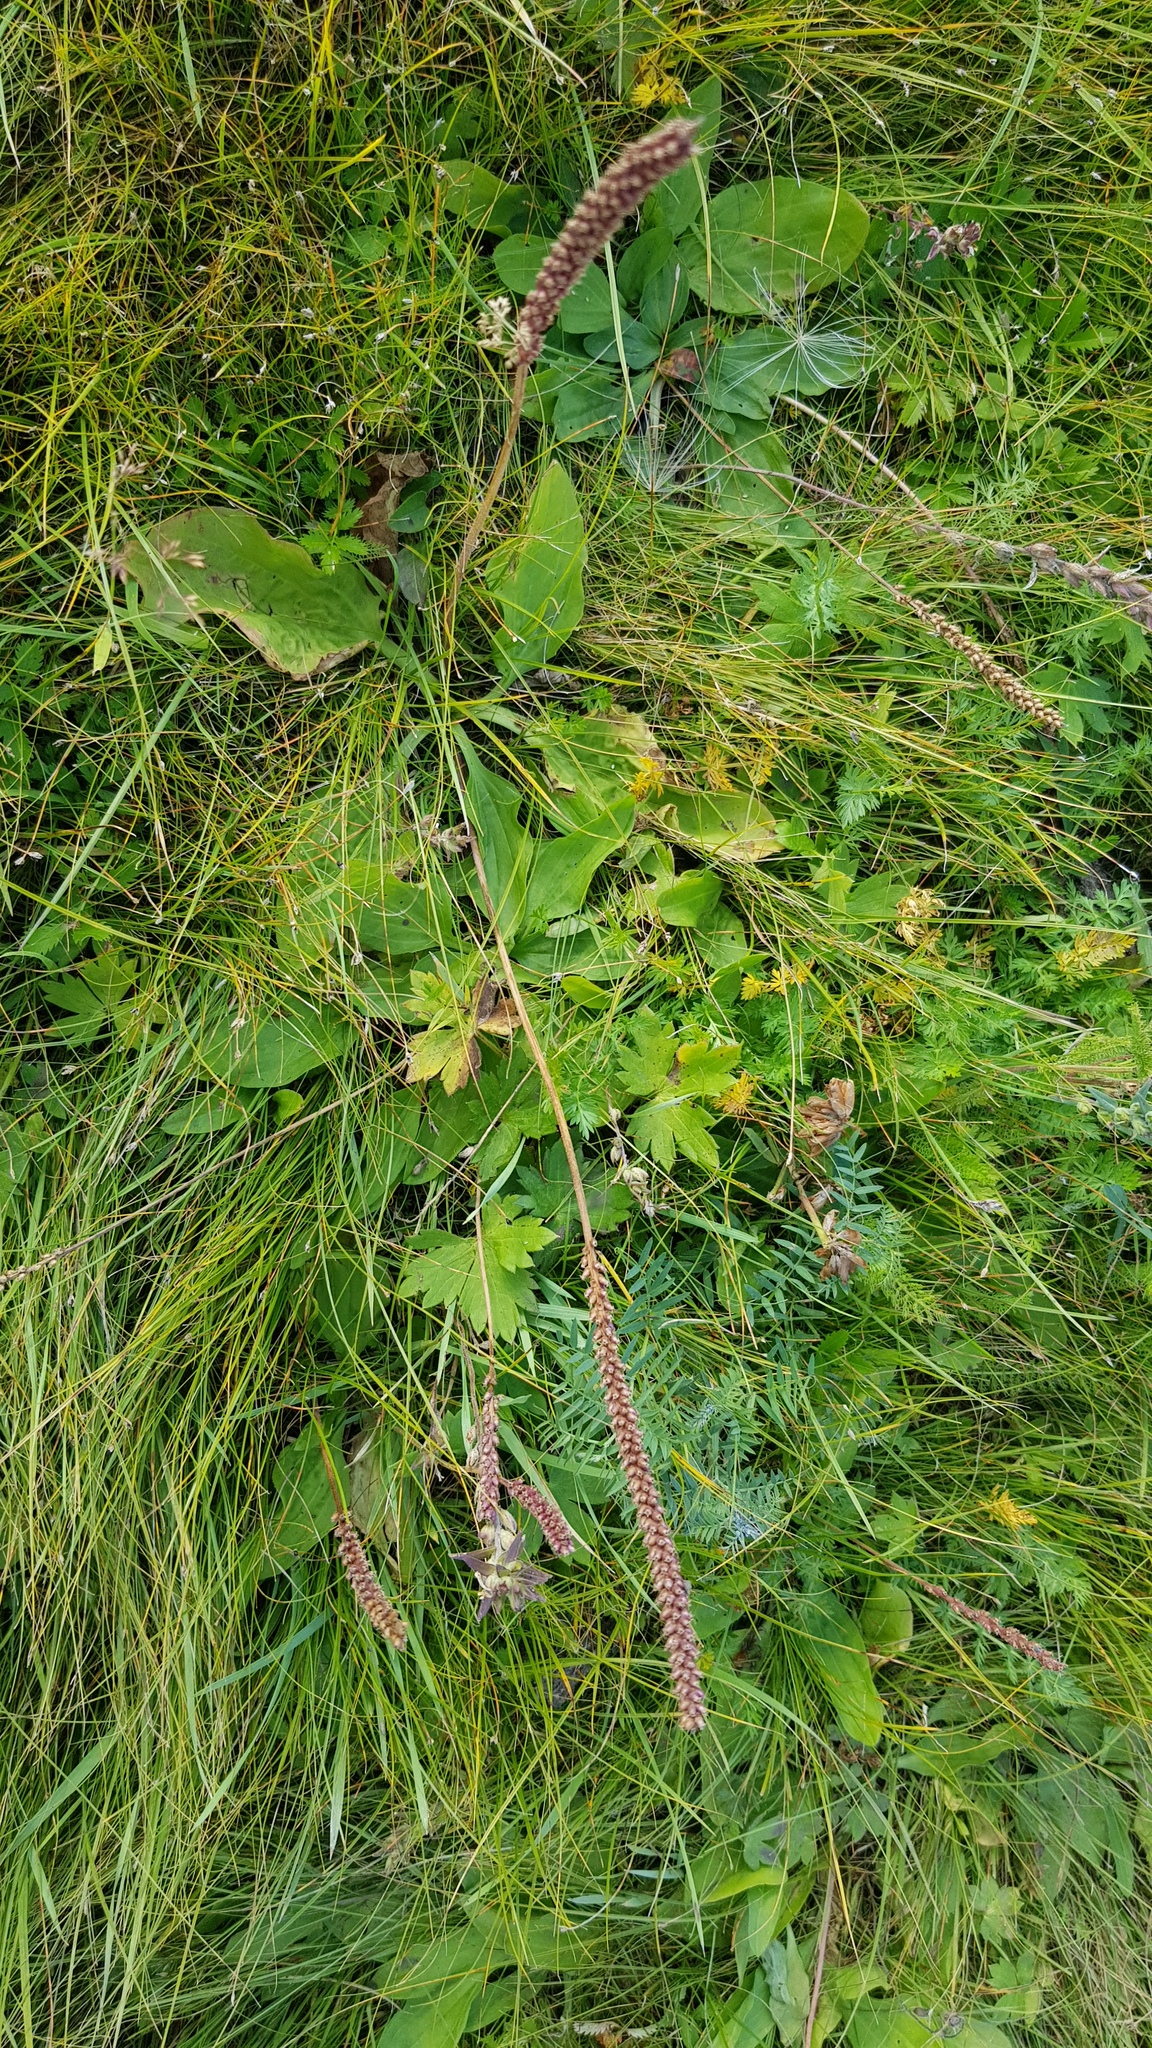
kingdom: Plantae
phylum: Tracheophyta
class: Magnoliopsida
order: Lamiales
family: Plantaginaceae
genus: Plantago
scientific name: Plantago depressa
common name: Depressed plantain
